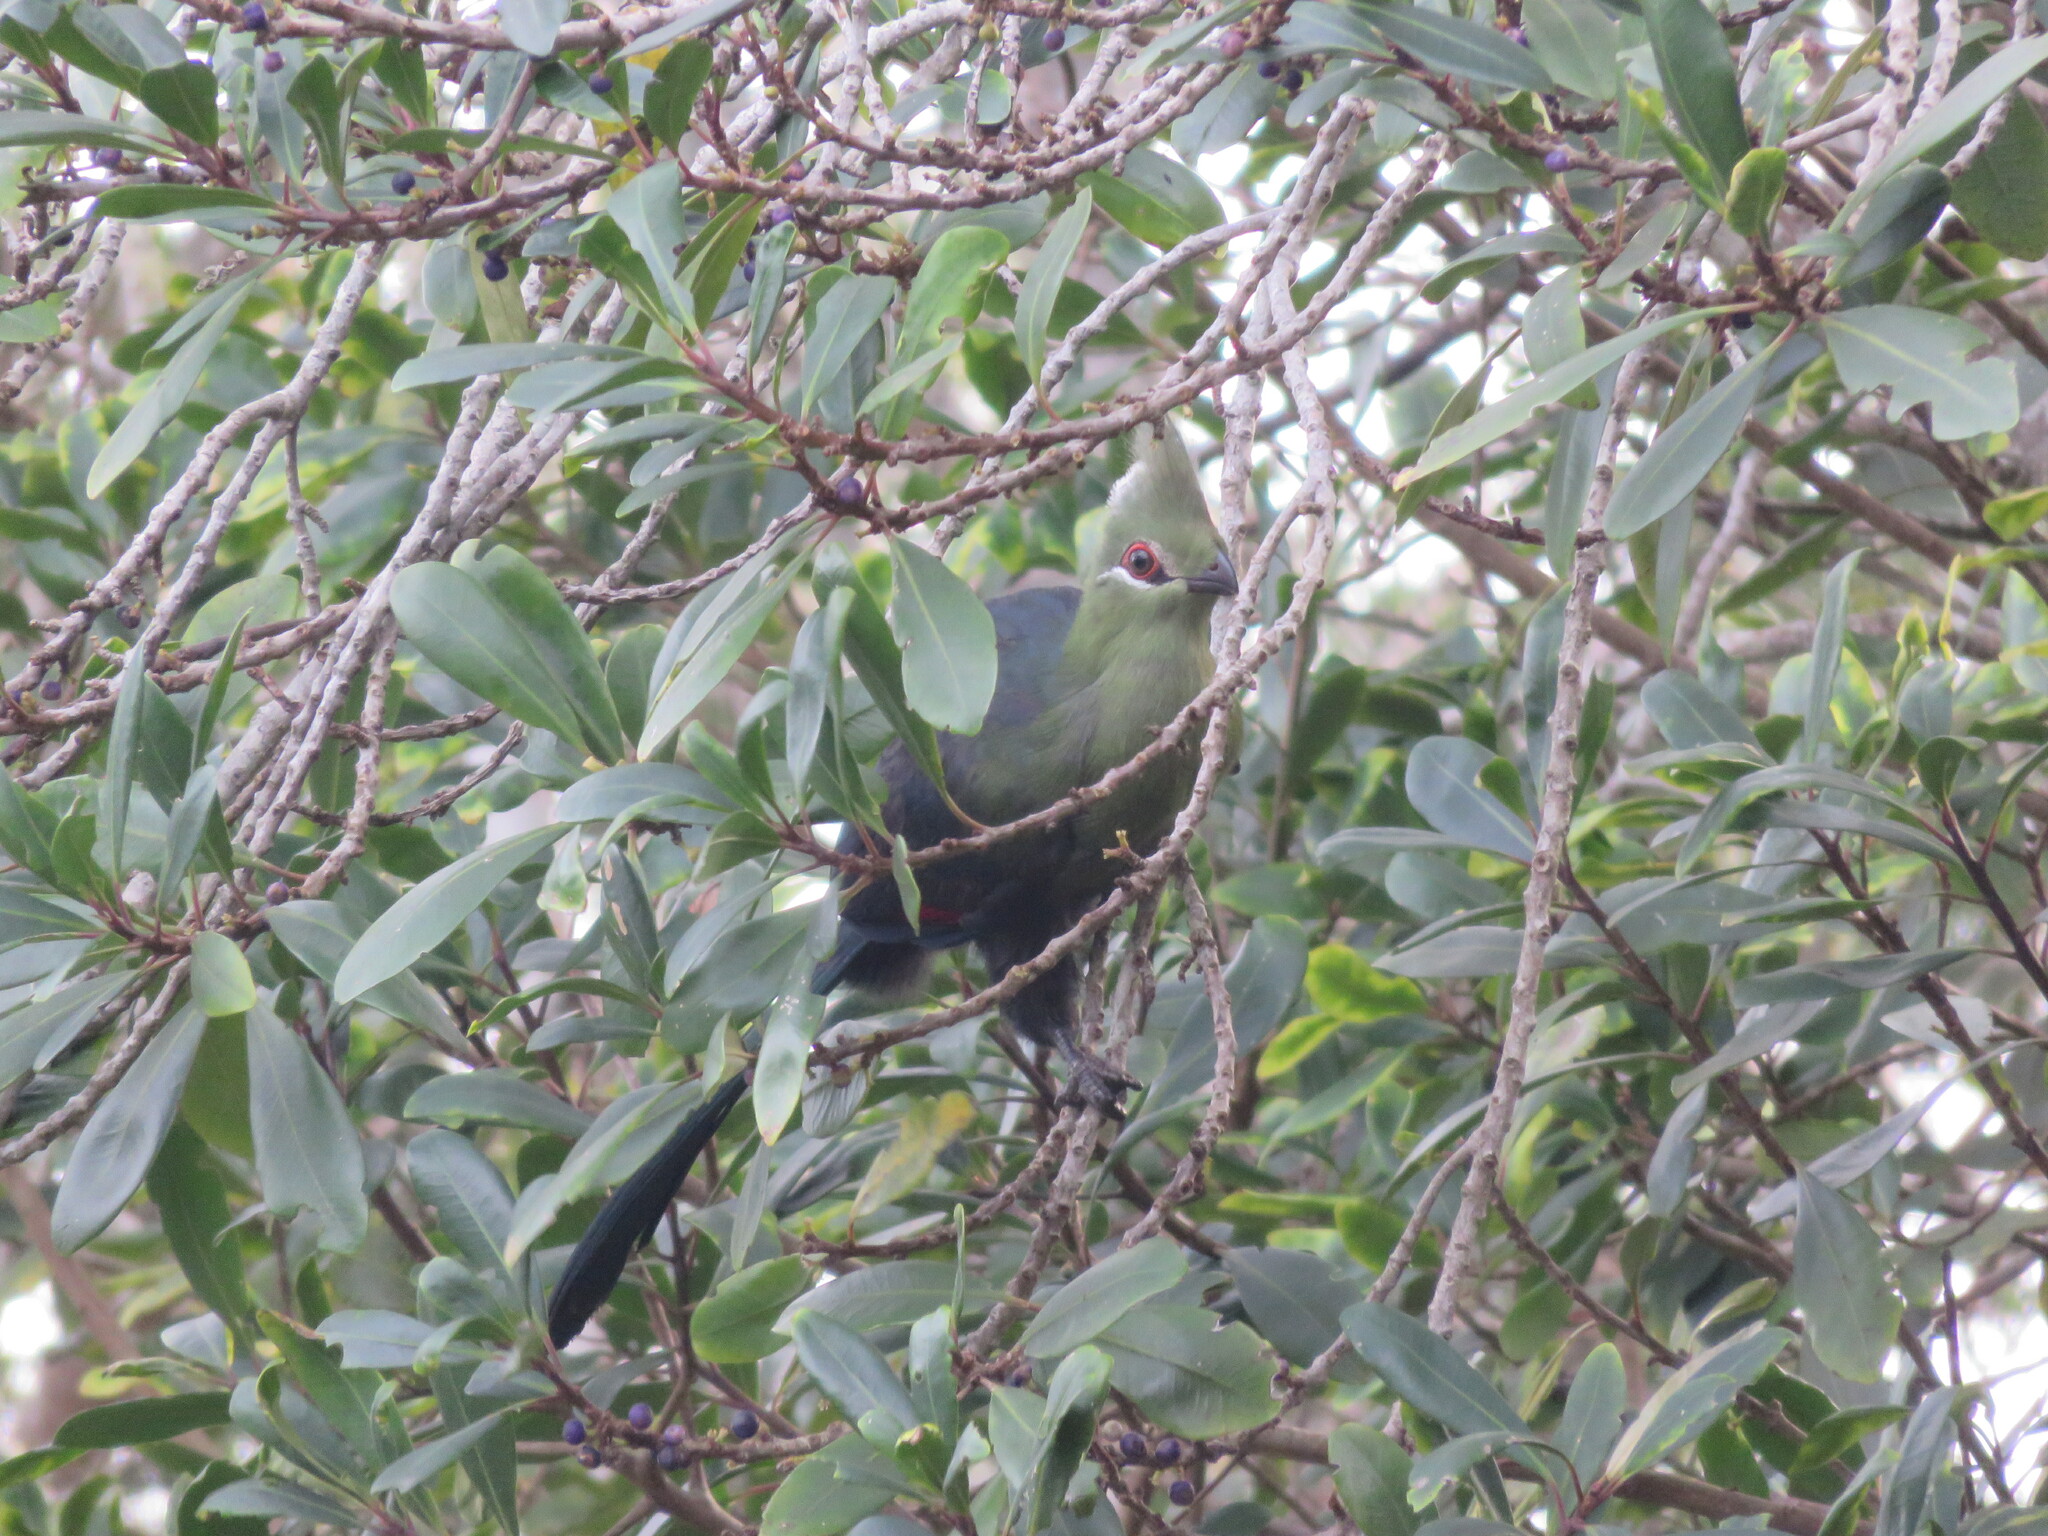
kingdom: Animalia
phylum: Chordata
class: Aves
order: Musophagiformes
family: Musophagidae
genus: Tauraco
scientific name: Tauraco corythaix
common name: Knysna turaco
